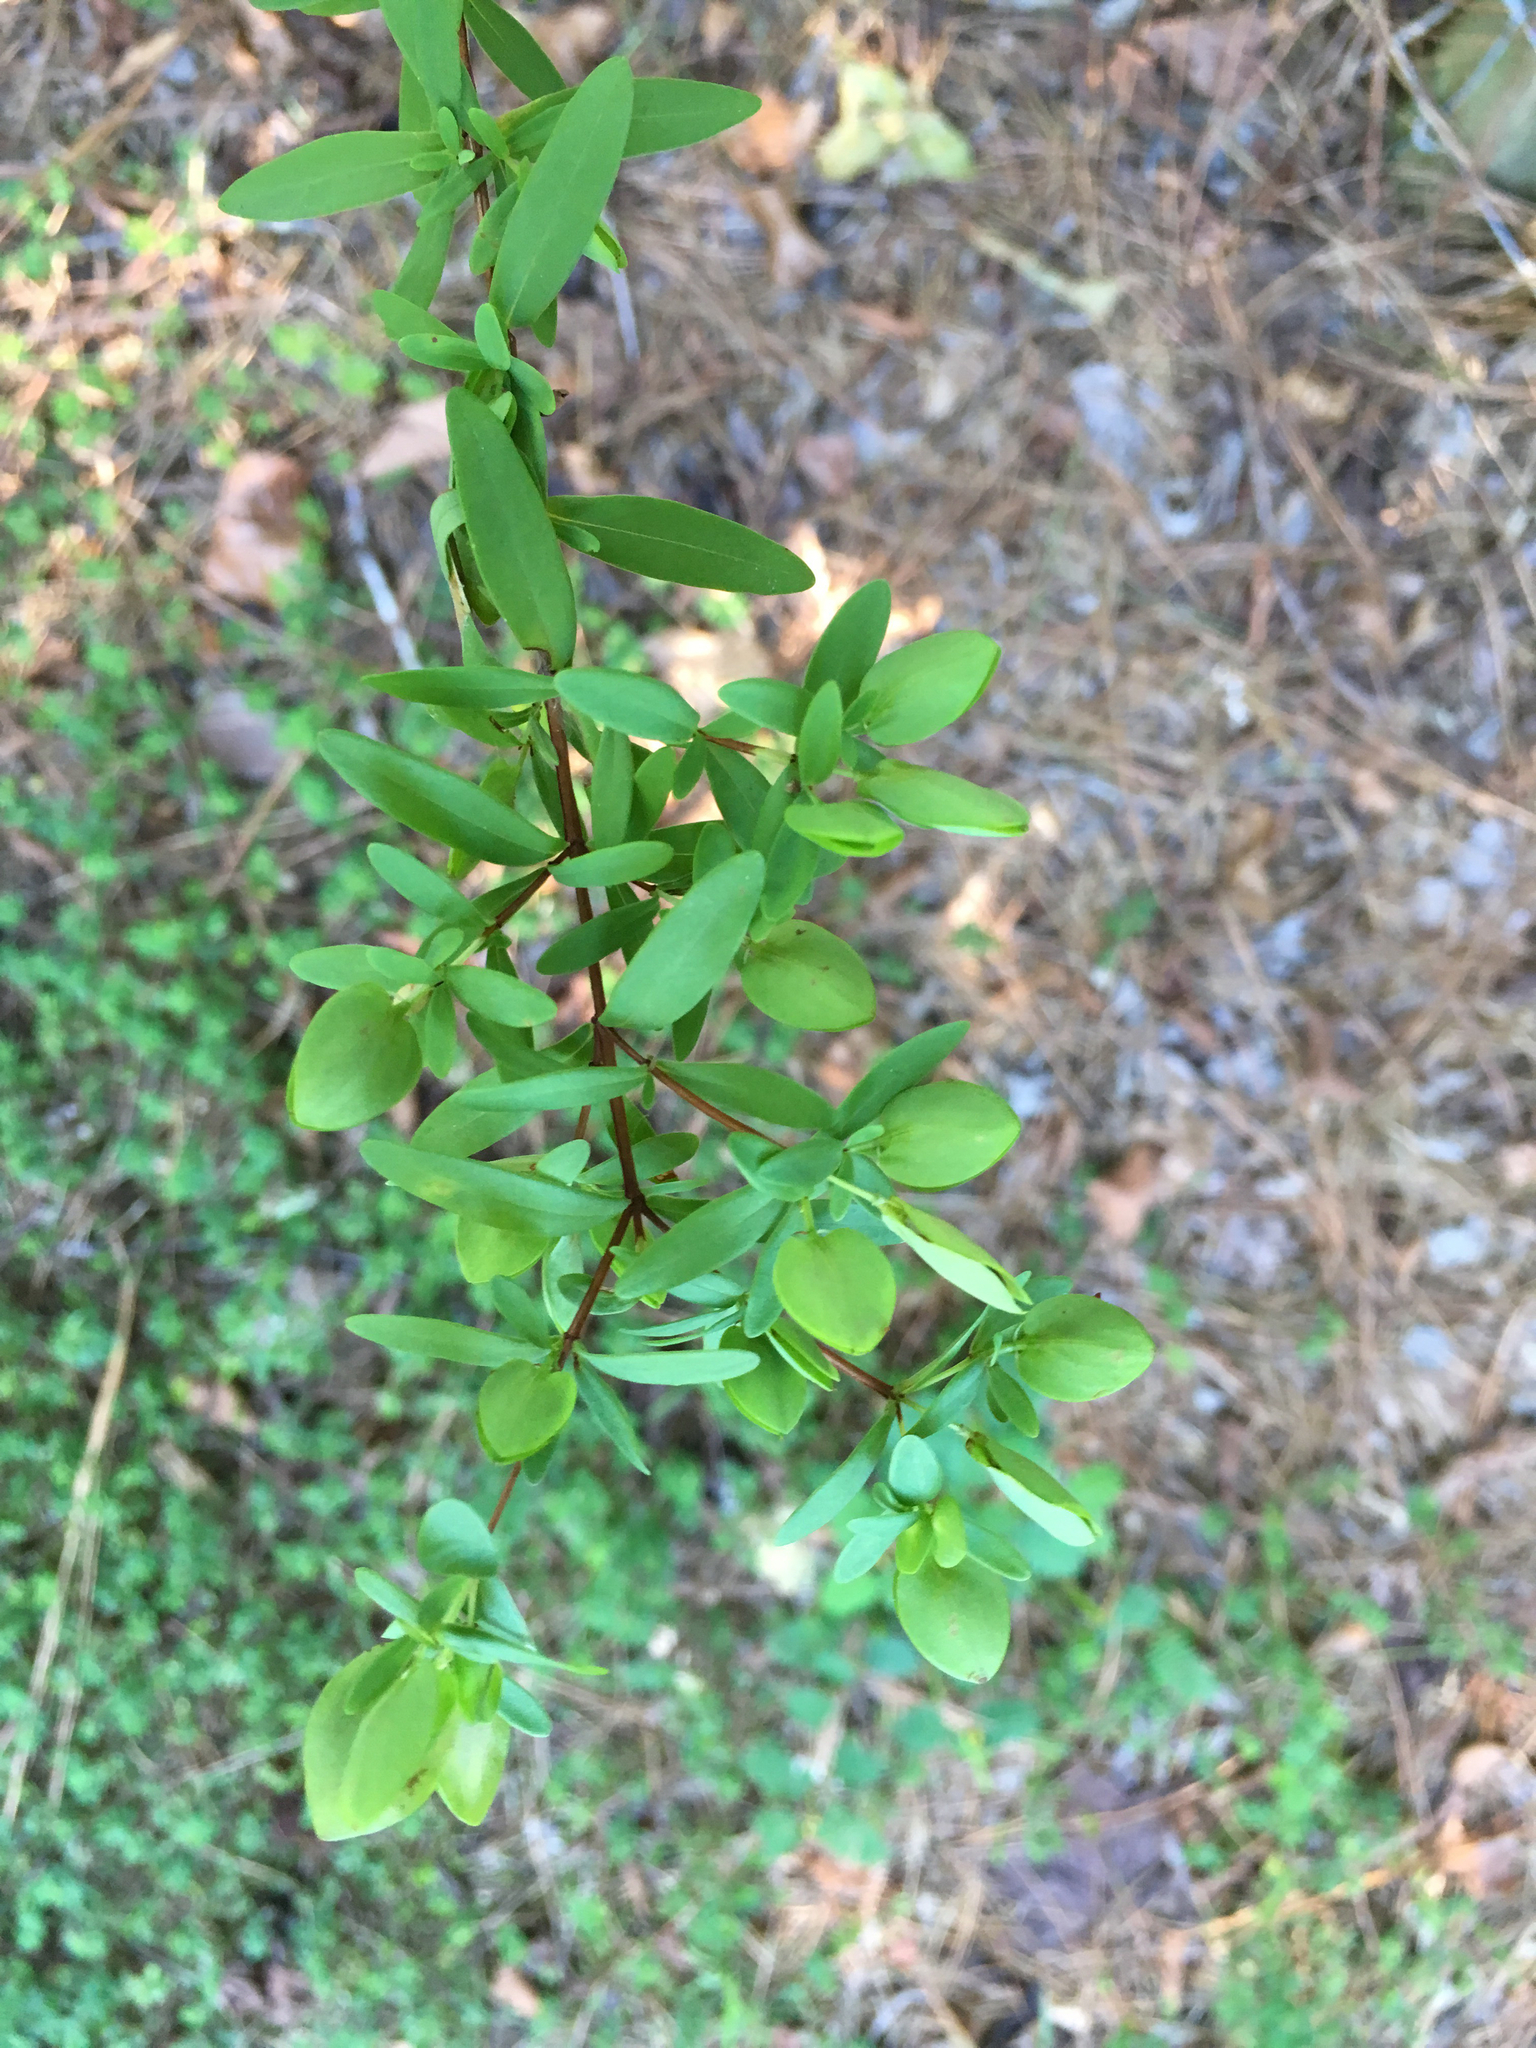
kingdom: Plantae
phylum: Tracheophyta
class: Magnoliopsida
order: Malpighiales
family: Hypericaceae
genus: Hypericum
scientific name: Hypericum hypericoides
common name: St. andrew's cross
